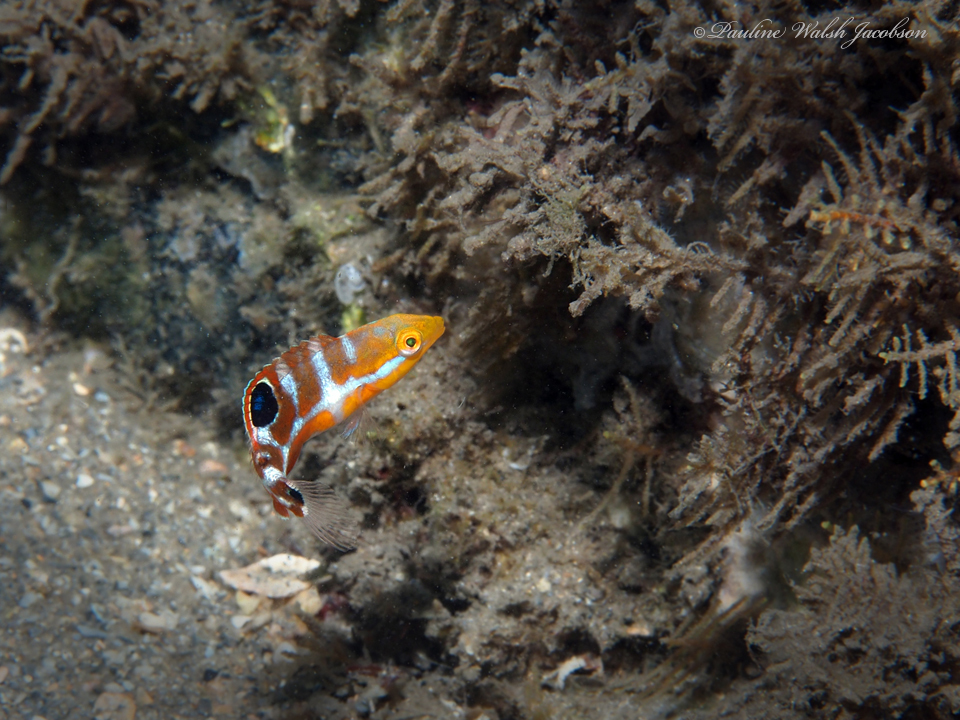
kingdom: Animalia
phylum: Chordata
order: Perciformes
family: Labridae
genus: Halichoeres
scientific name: Halichoeres radiatus
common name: Puddingwife
